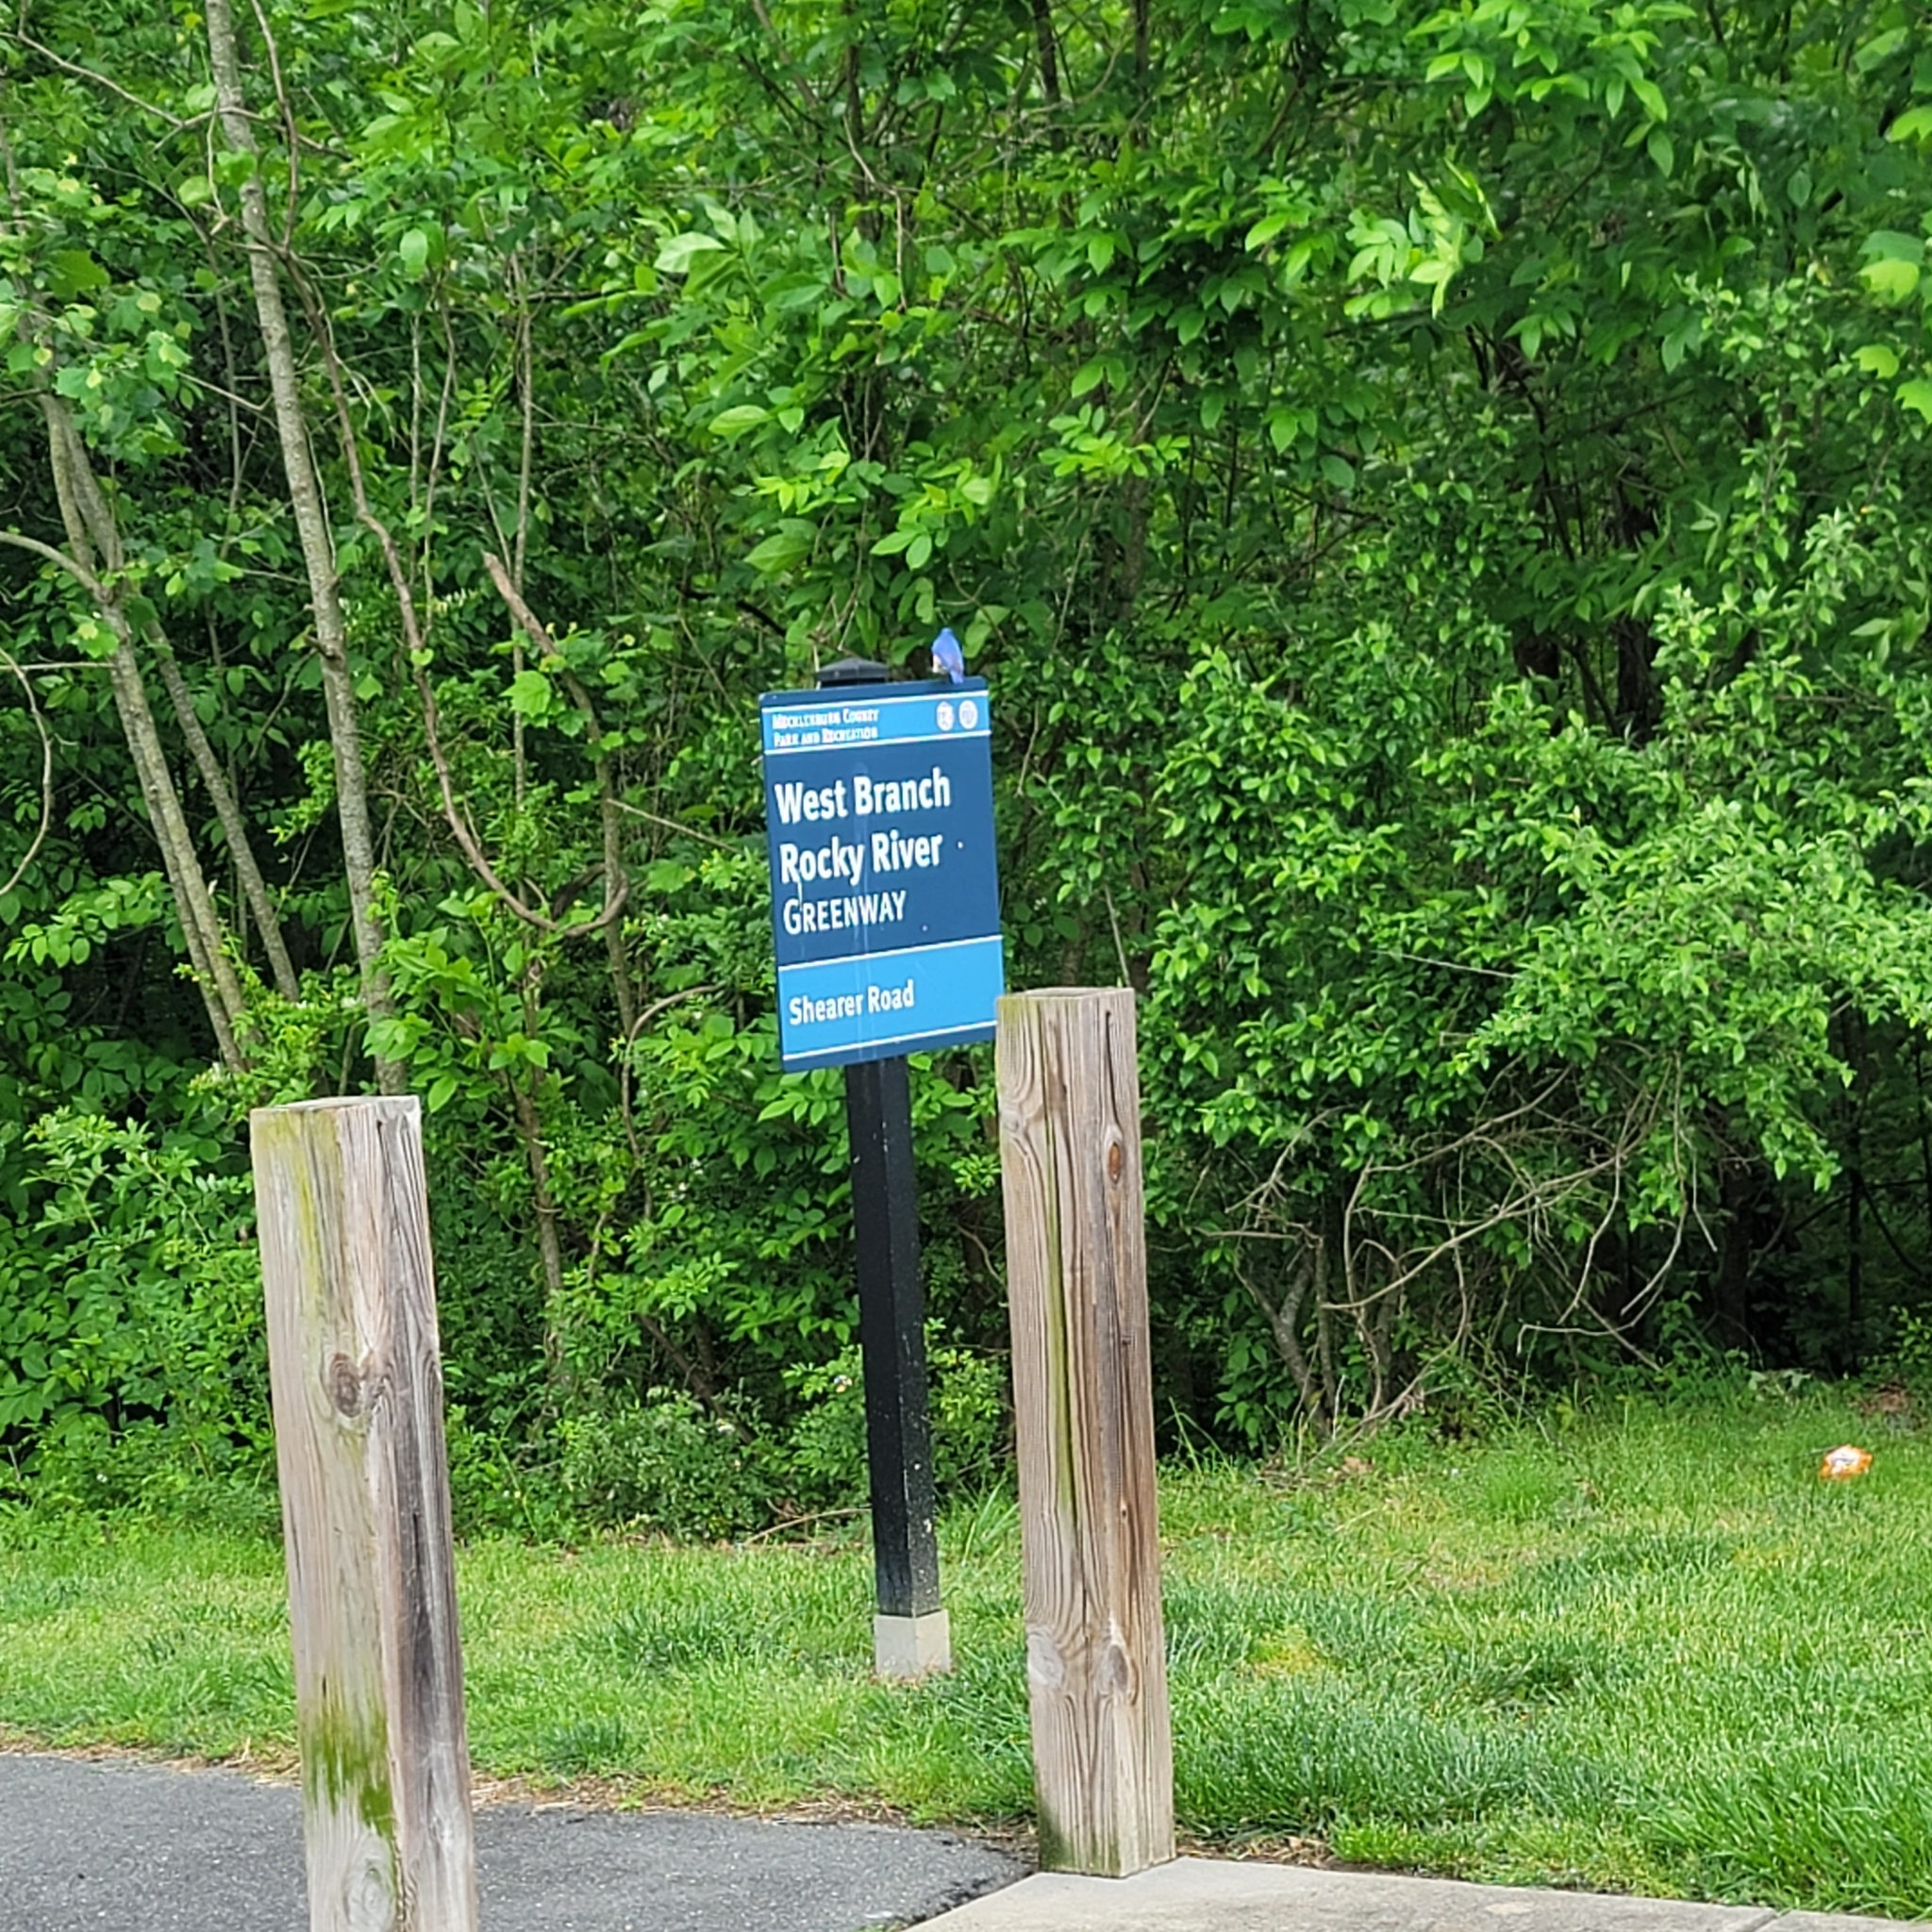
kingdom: Animalia
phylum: Chordata
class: Aves
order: Passeriformes
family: Turdidae
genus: Sialia
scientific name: Sialia sialis
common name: Eastern bluebird
